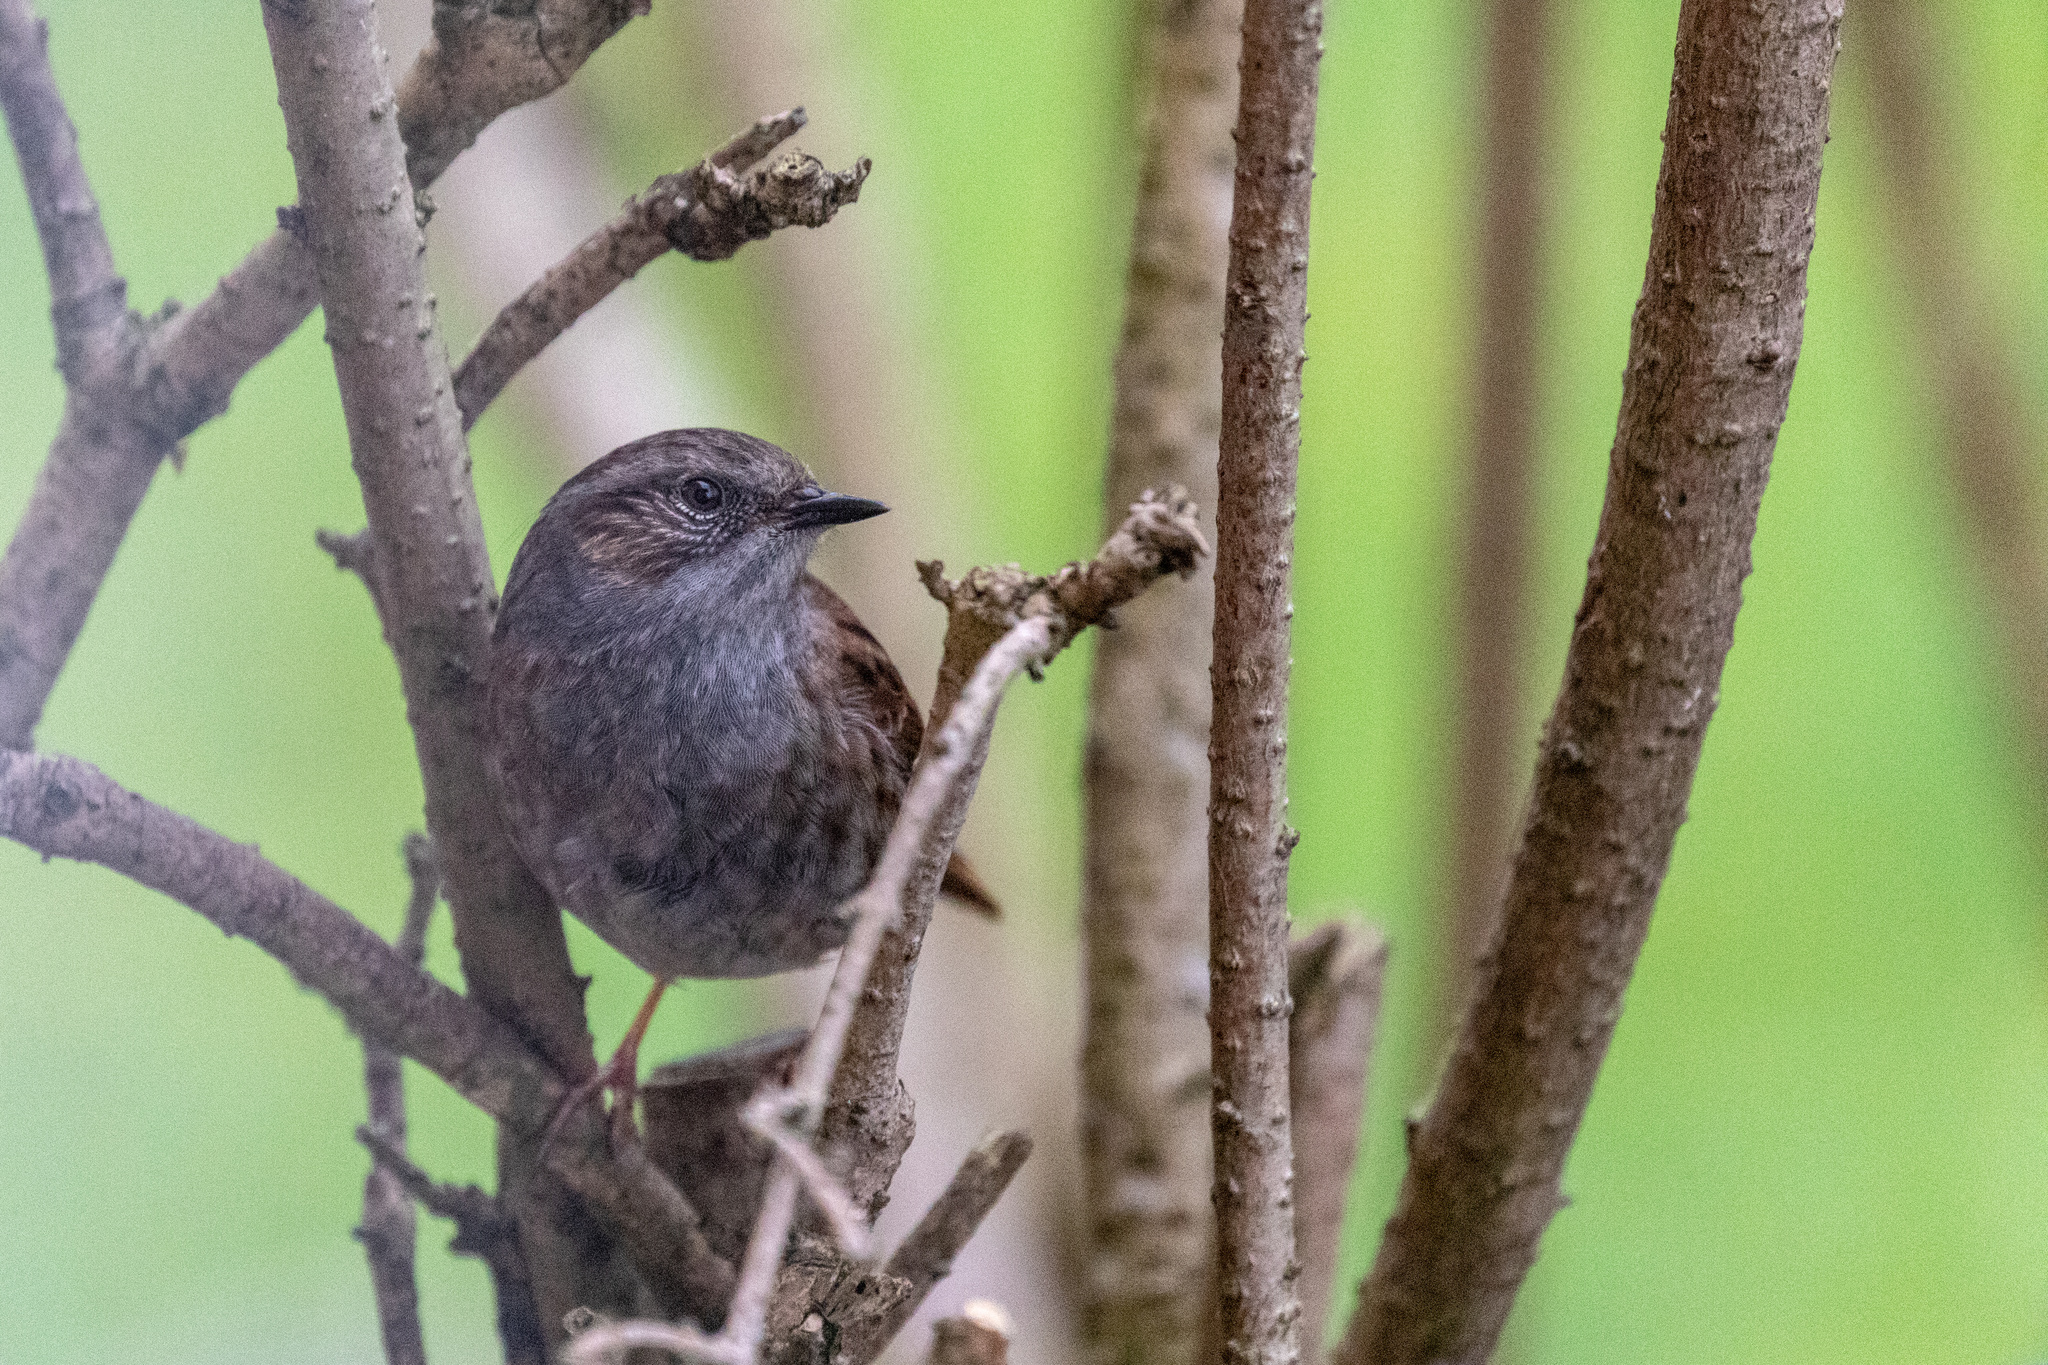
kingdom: Animalia
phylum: Chordata
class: Aves
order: Passeriformes
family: Prunellidae
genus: Prunella
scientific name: Prunella modularis
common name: Dunnock
